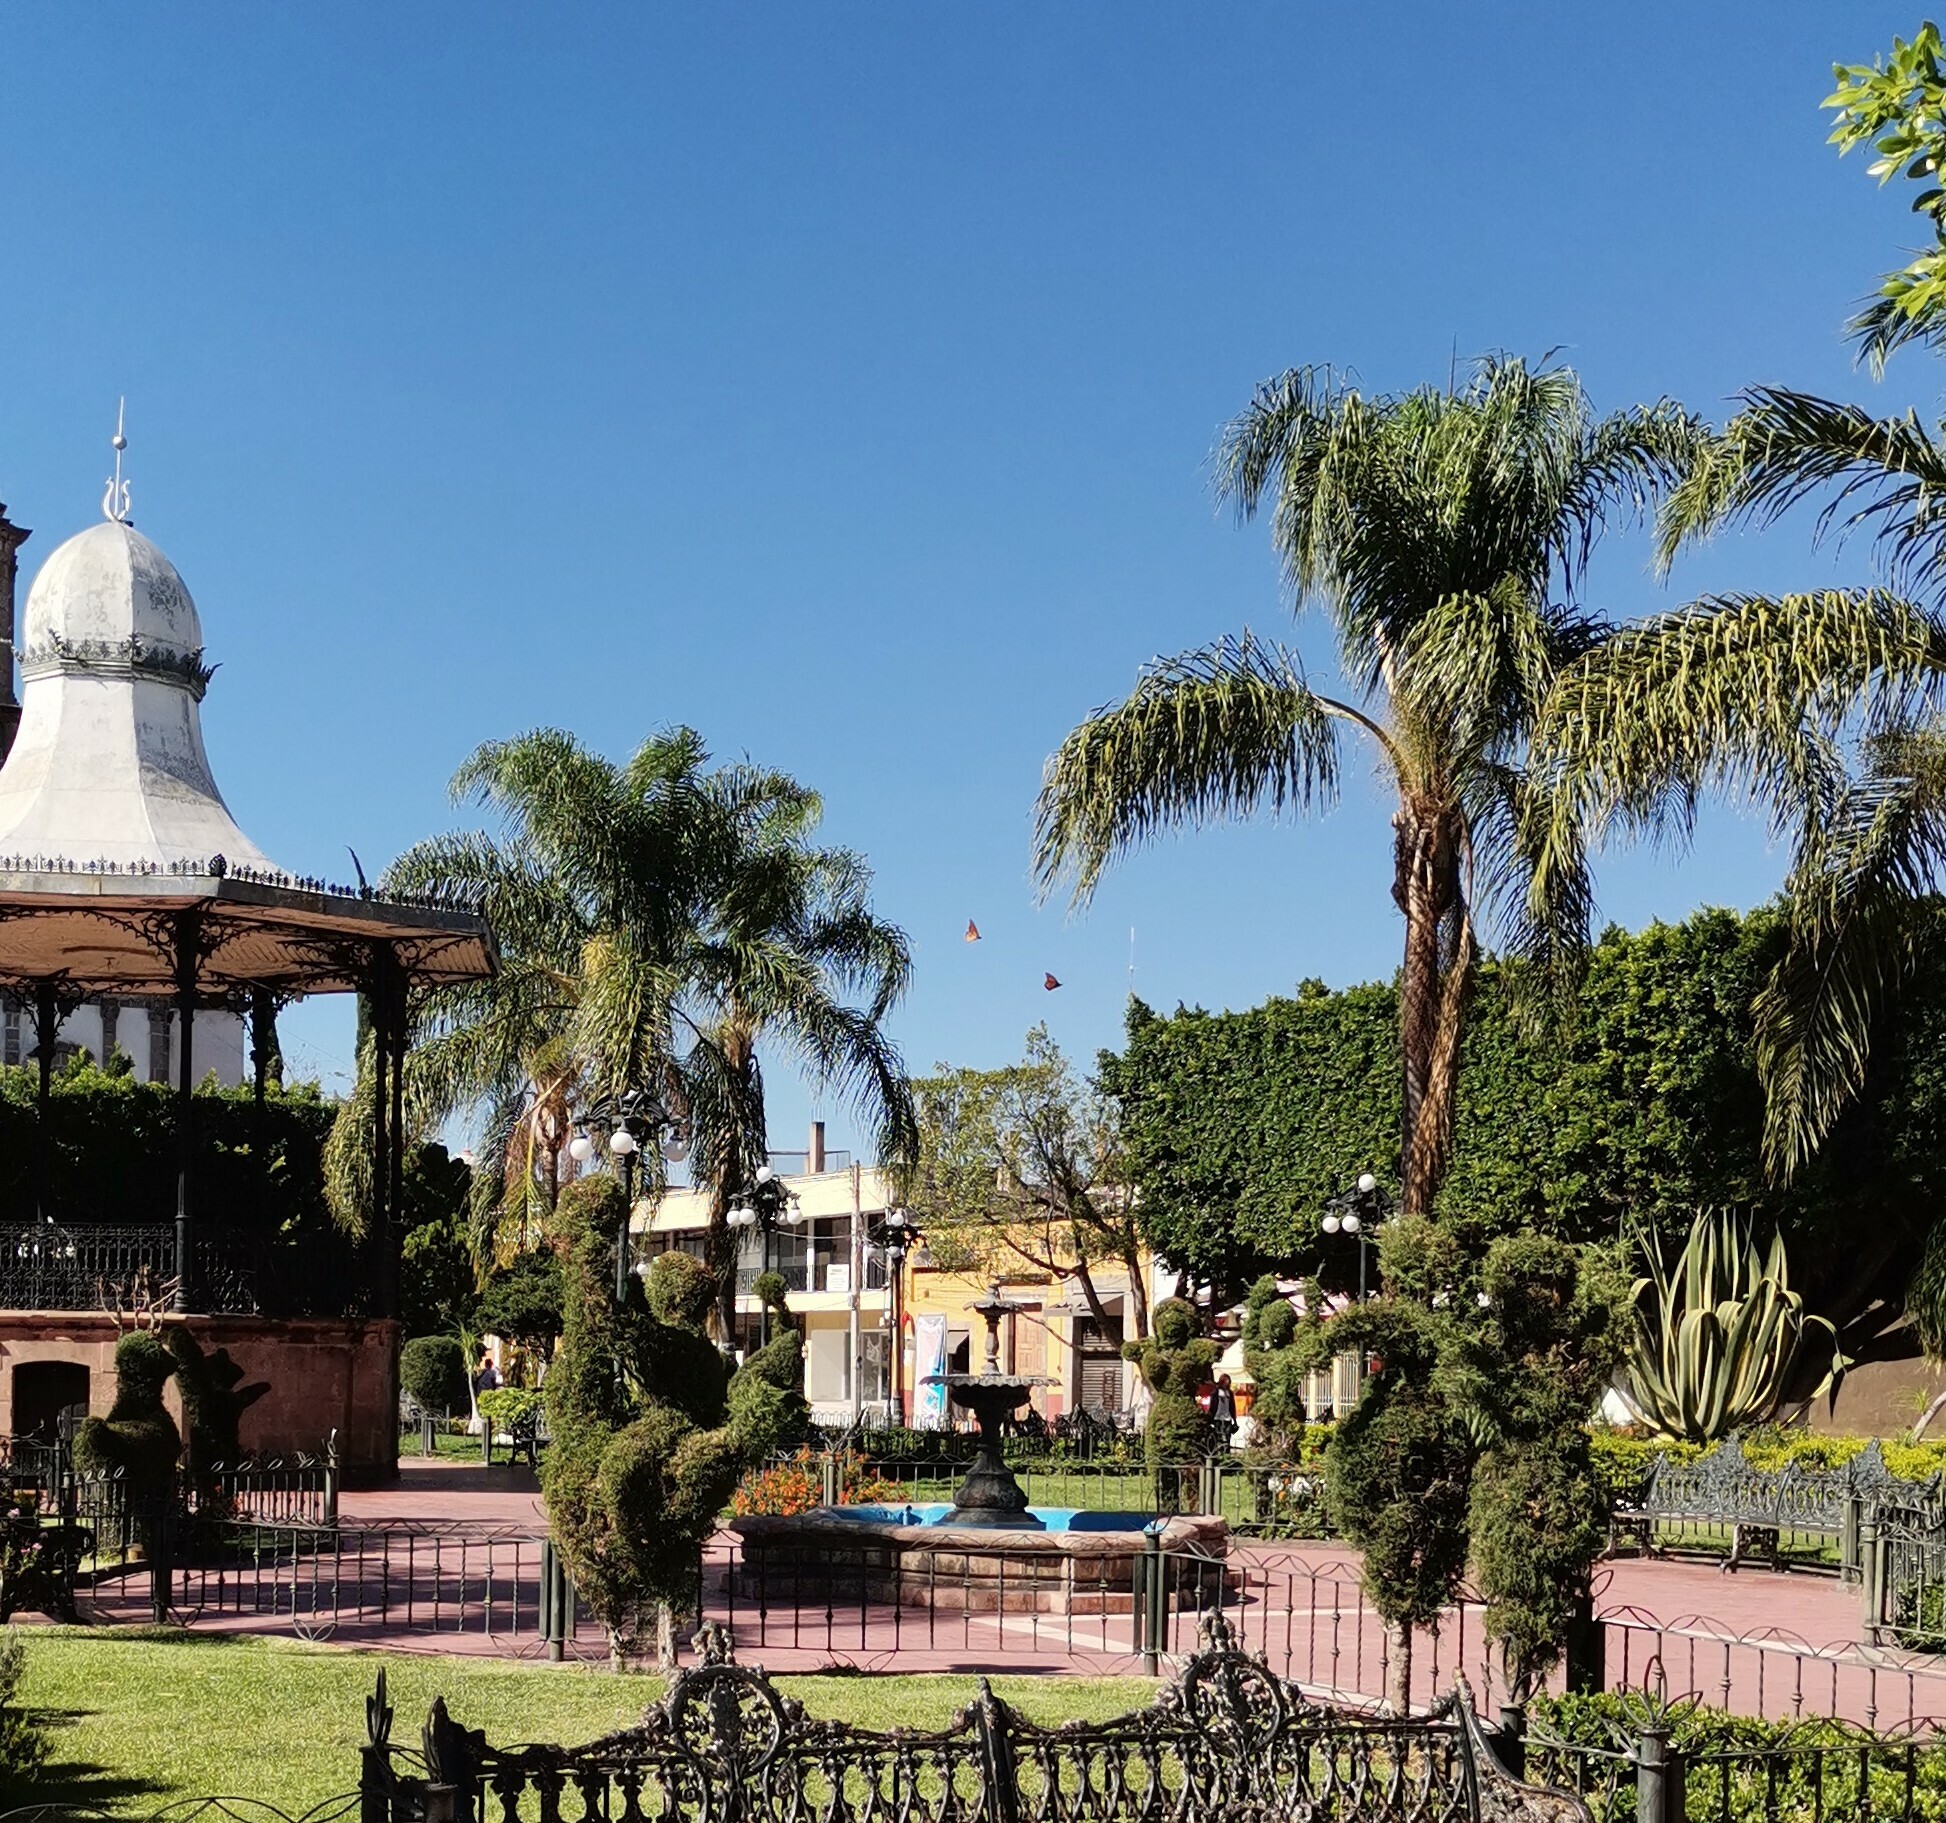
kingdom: Animalia
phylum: Arthropoda
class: Insecta
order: Lepidoptera
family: Nymphalidae
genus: Danaus
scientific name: Danaus plexippus
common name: Monarch
